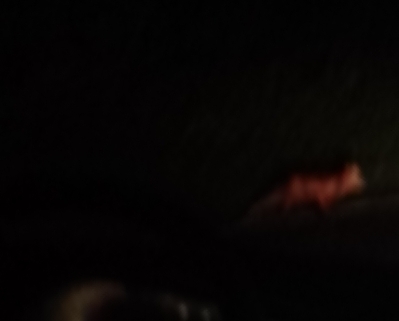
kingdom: Animalia
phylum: Chordata
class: Mammalia
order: Carnivora
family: Canidae
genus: Vulpes
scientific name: Vulpes vulpes
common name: Red fox
